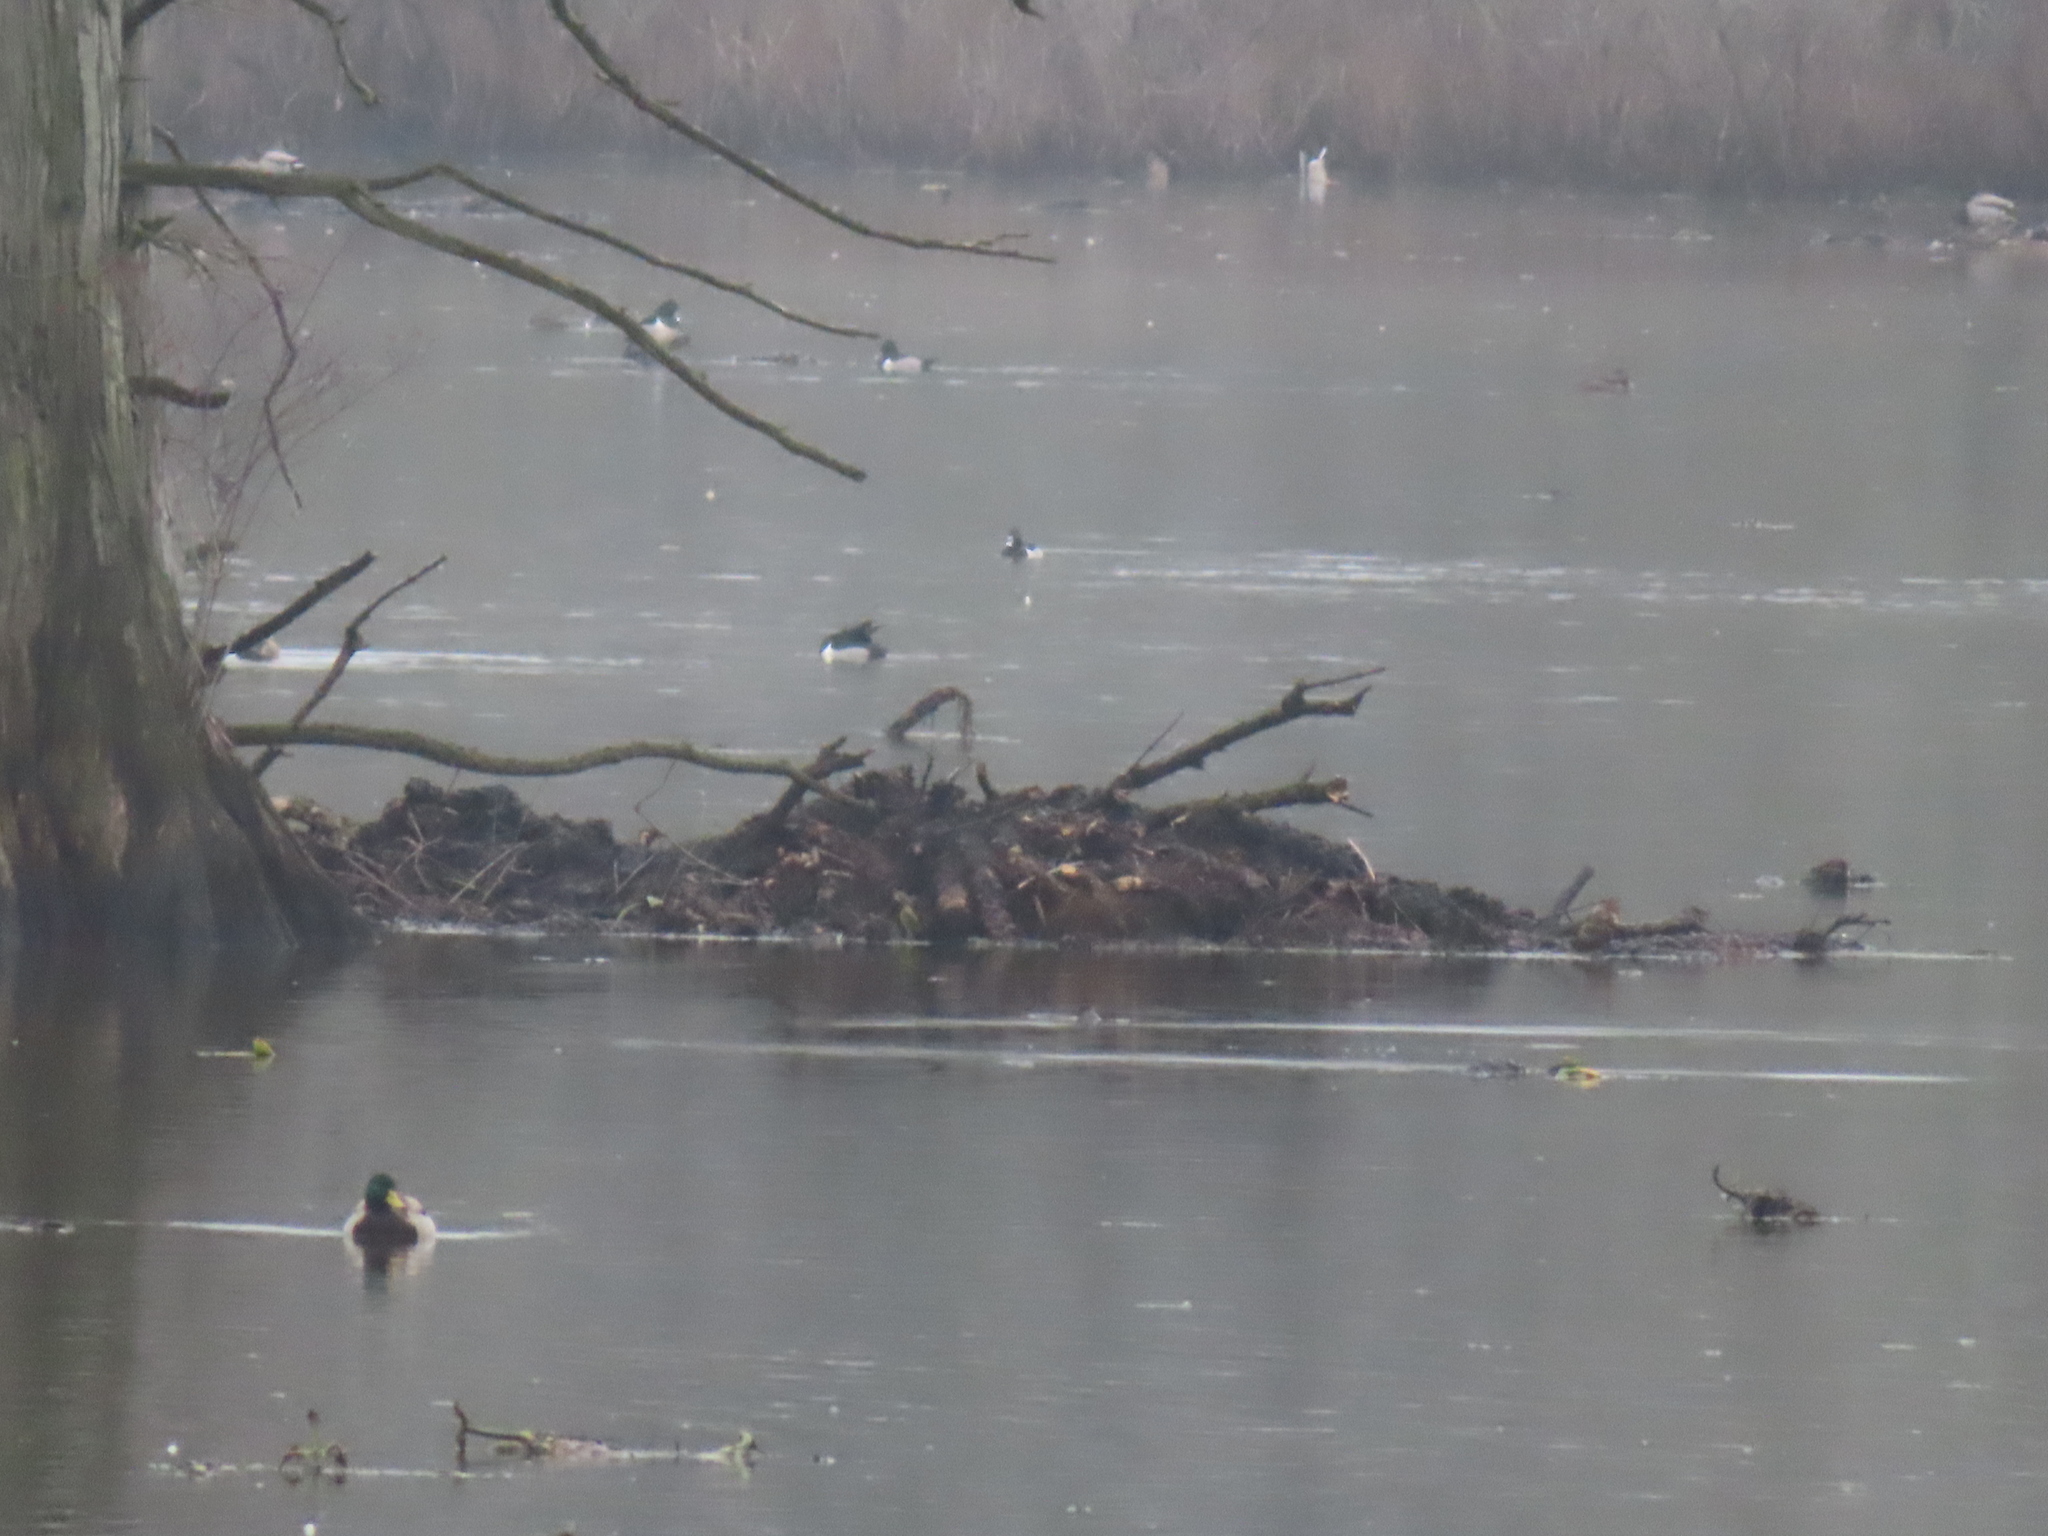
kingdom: Animalia
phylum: Chordata
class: Aves
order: Anseriformes
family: Anatidae
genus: Anas
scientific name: Anas platyrhynchos
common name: Mallard
